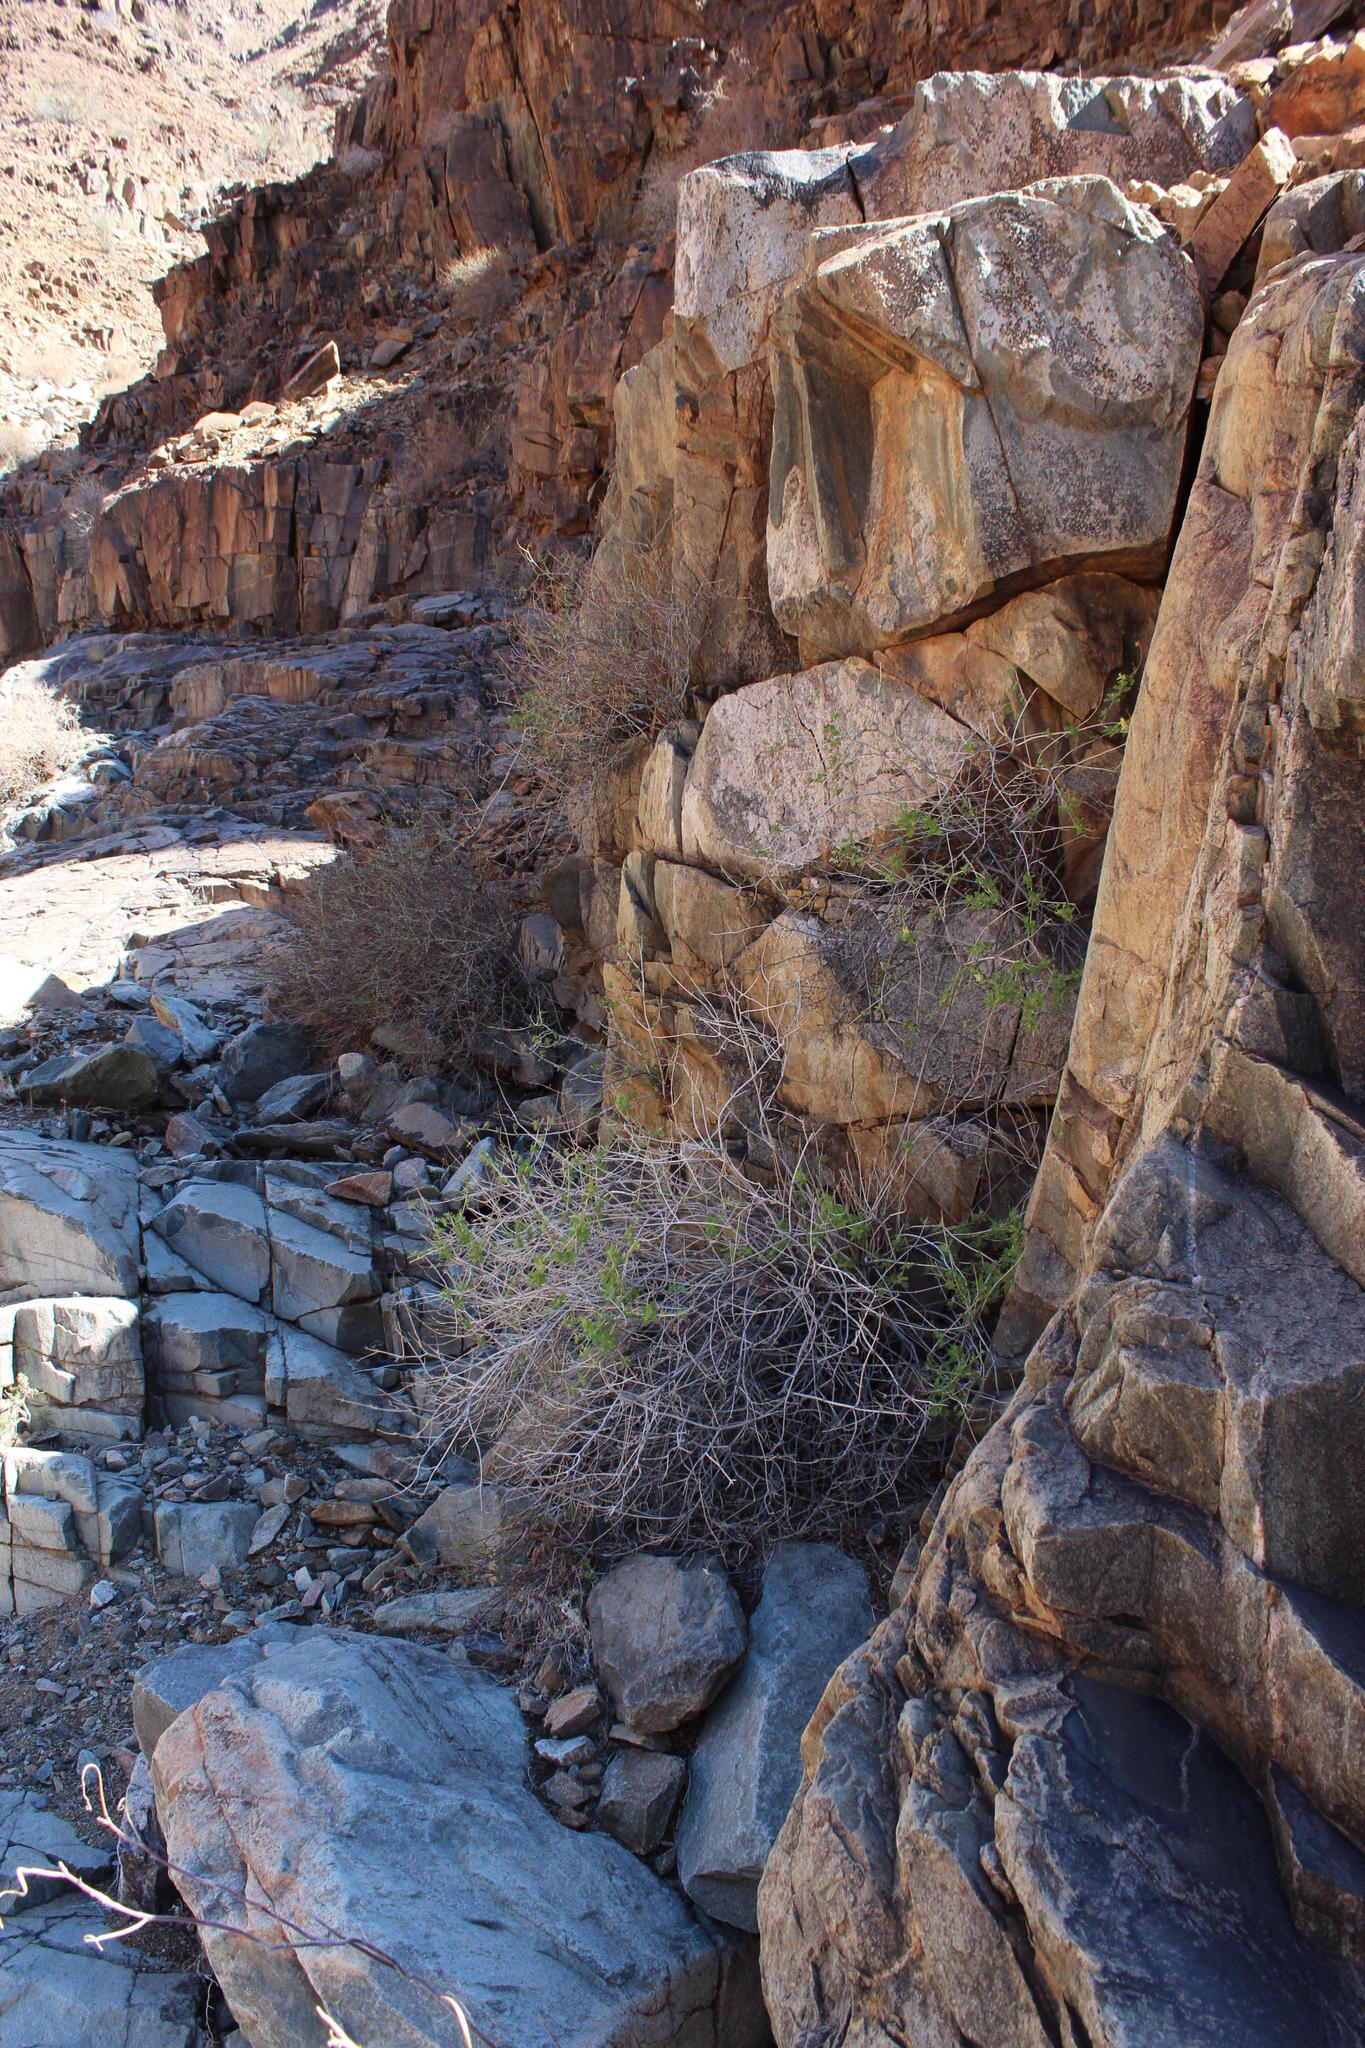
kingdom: Plantae
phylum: Tracheophyta
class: Magnoliopsida
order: Lamiales
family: Lamiaceae
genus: Salvia
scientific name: Salvia garipensis
